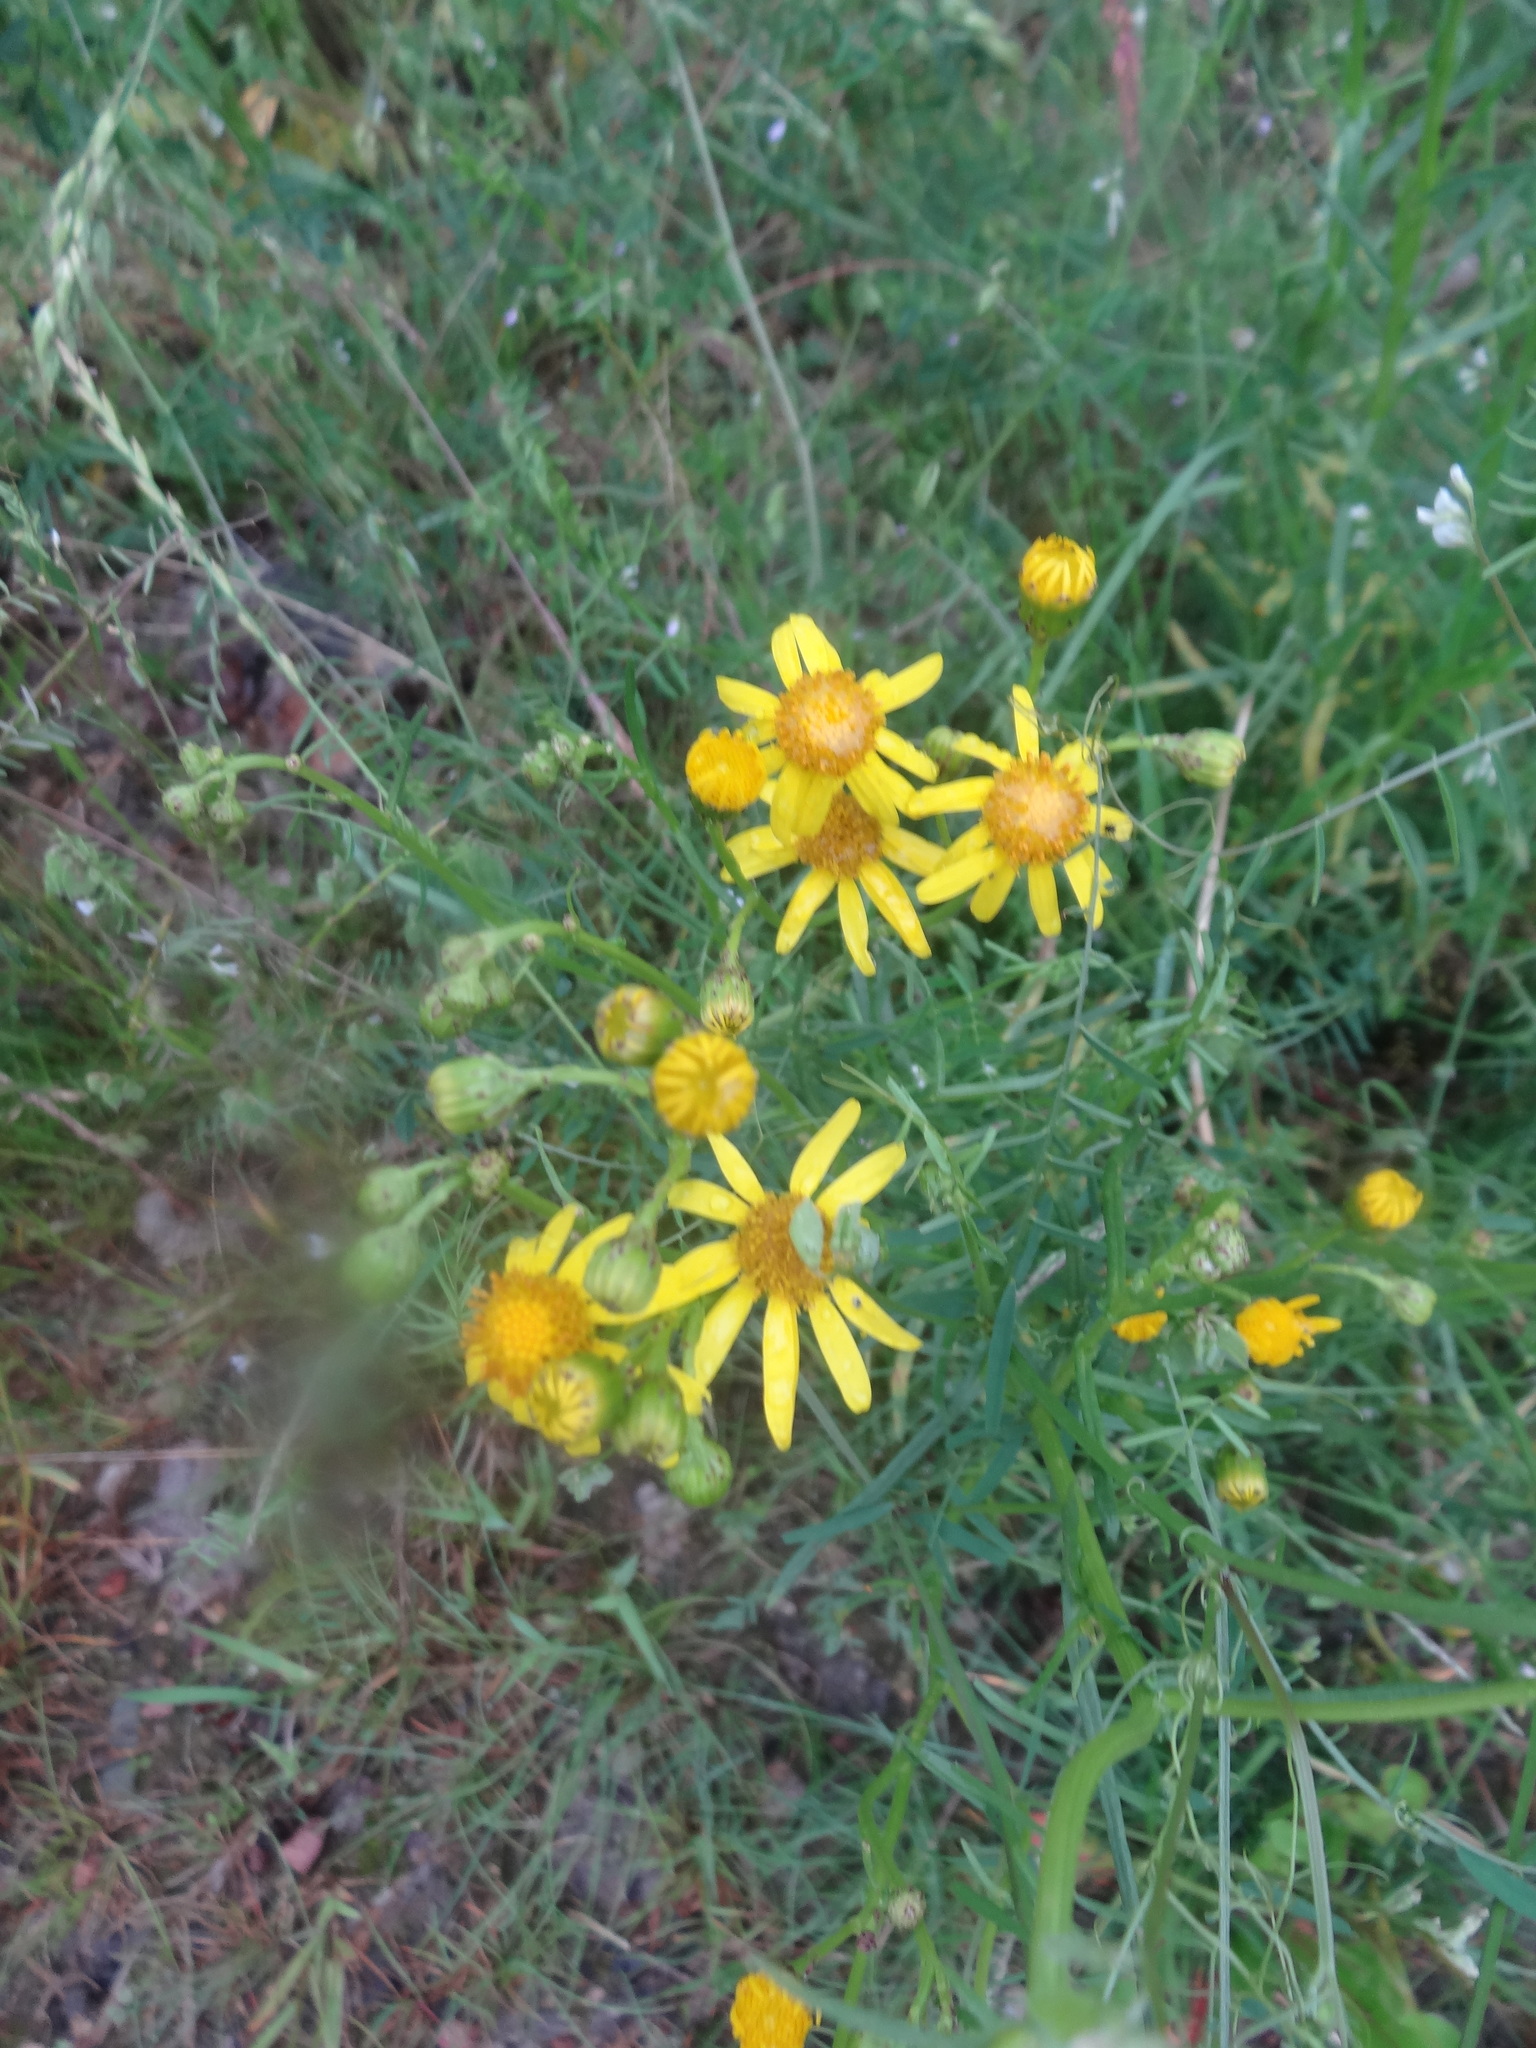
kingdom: Plantae
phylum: Tracheophyta
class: Magnoliopsida
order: Asterales
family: Asteraceae
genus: Senecio
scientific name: Senecio inaequidens
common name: Narrow-leaved ragwort
